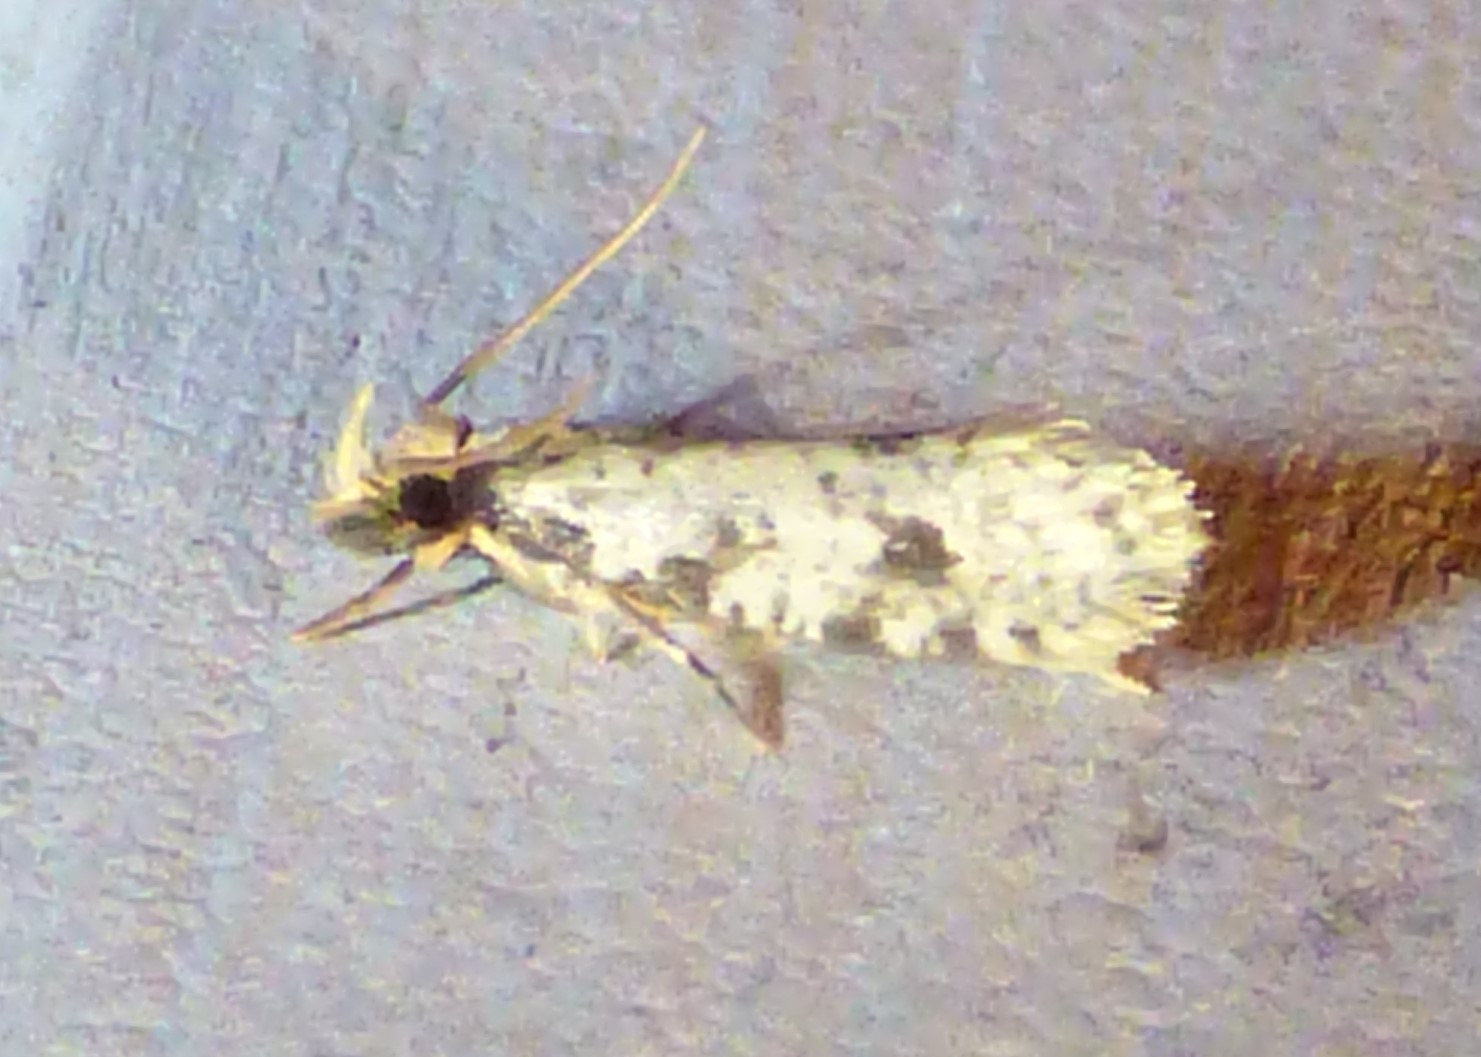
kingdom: Animalia
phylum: Arthropoda
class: Insecta
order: Lepidoptera
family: Tineidae
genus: Amydria
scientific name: Amydria effrentella
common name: Brown-blotched amydria moth
